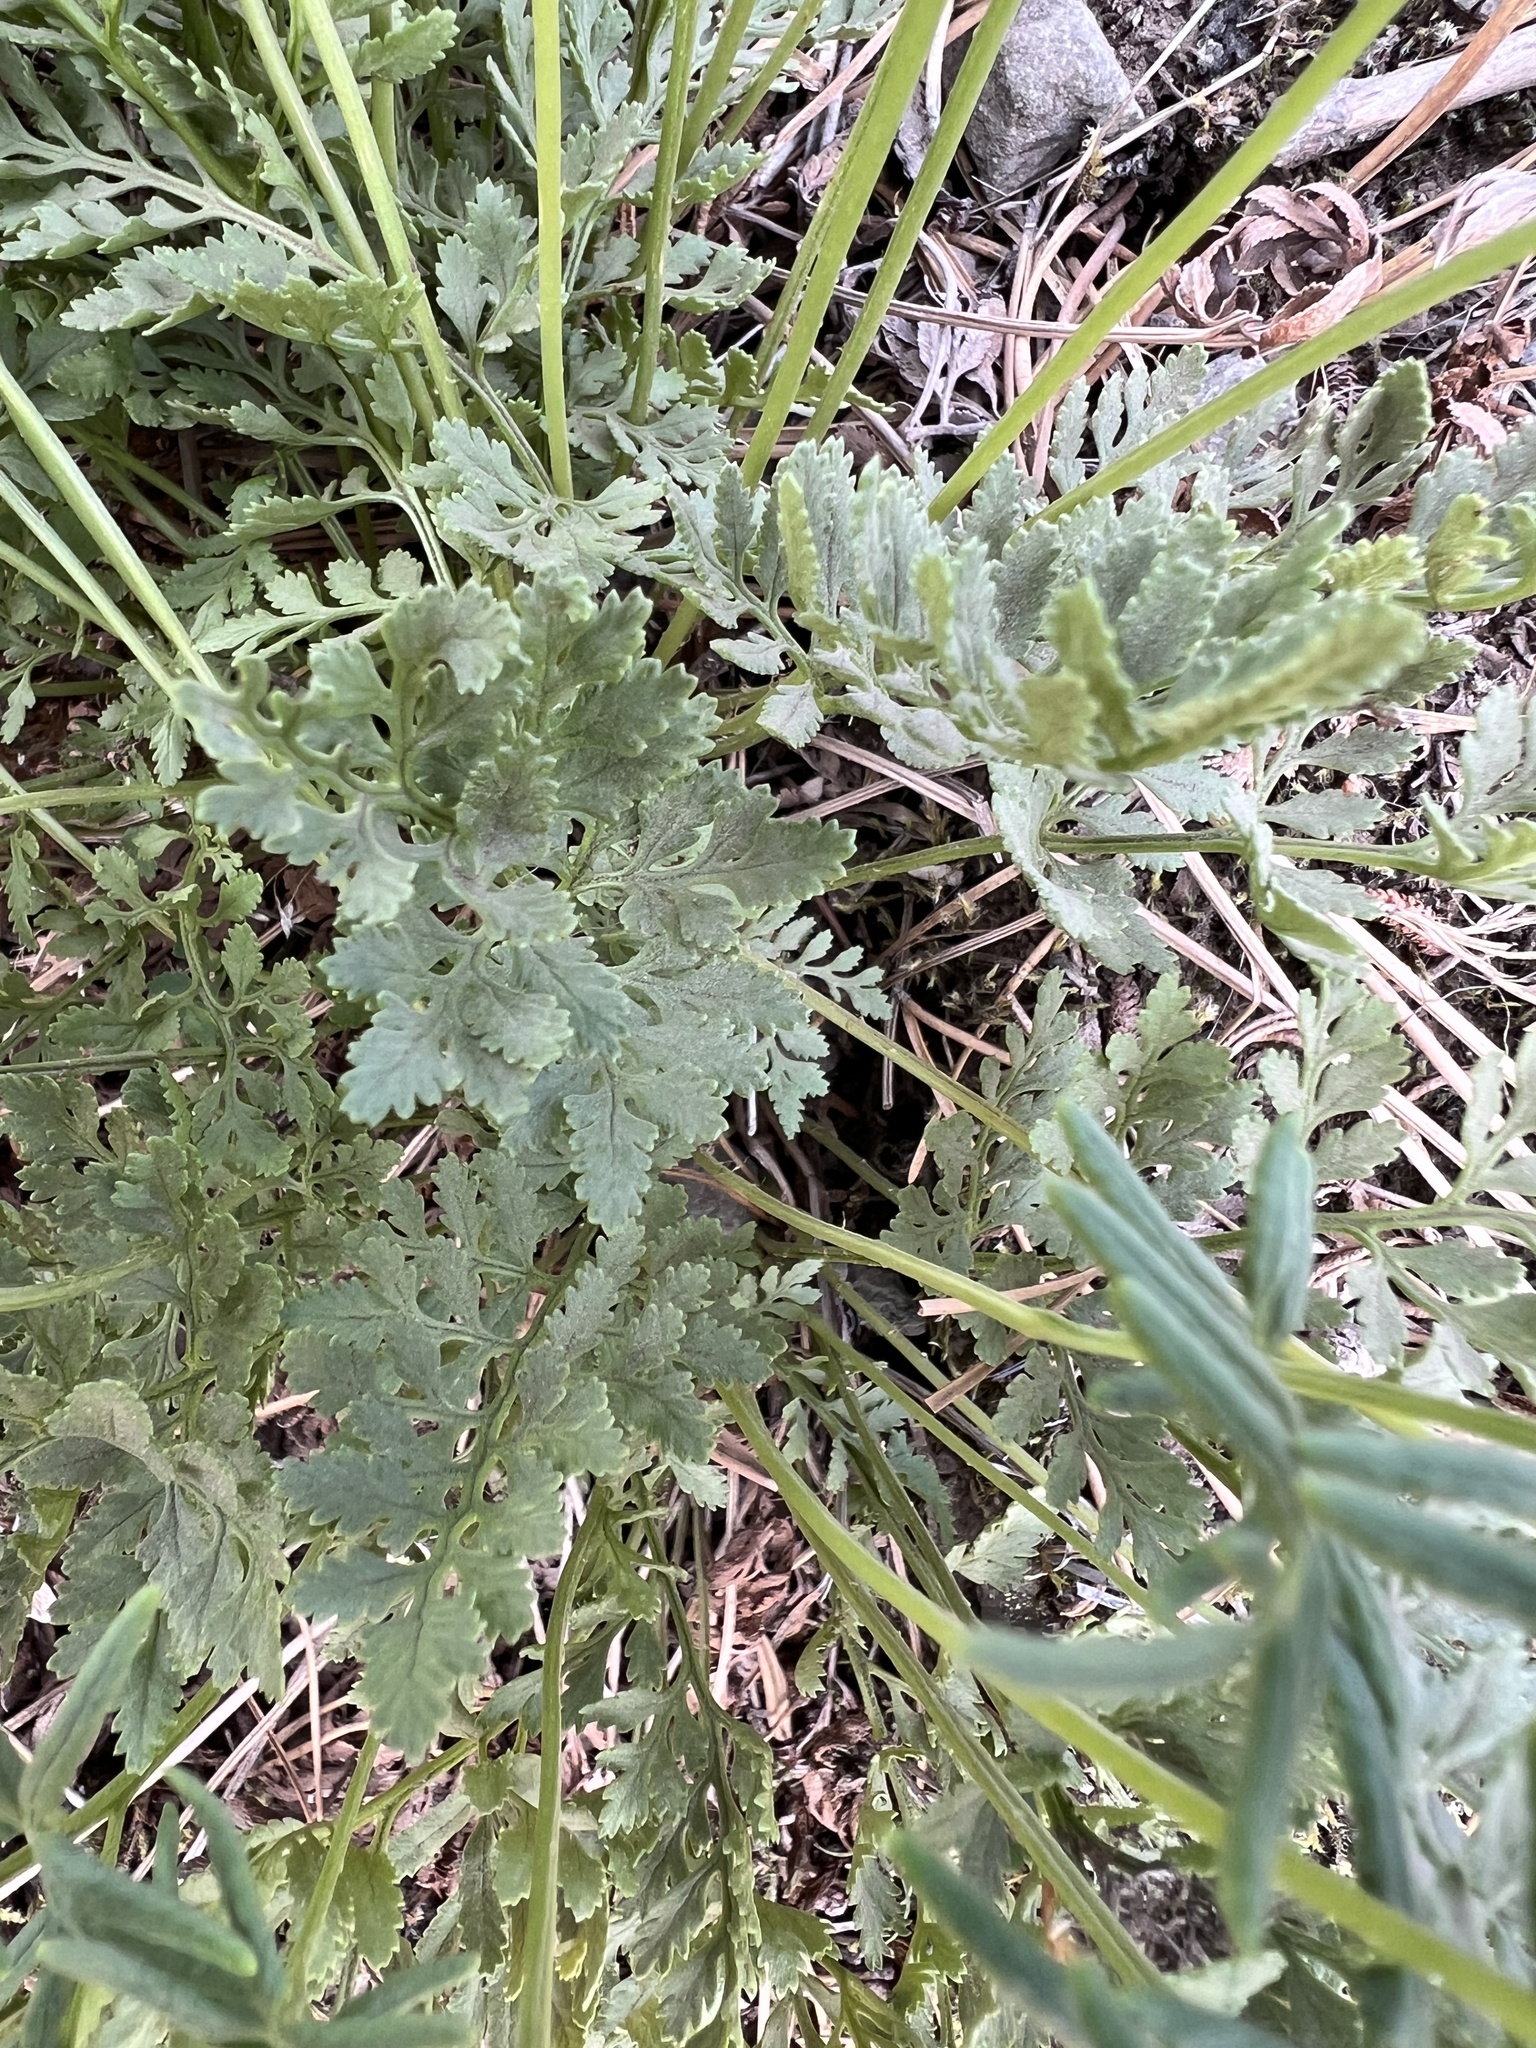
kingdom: Plantae
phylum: Tracheophyta
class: Polypodiopsida
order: Polypodiales
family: Pteridaceae
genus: Cryptogramma
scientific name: Cryptogramma acrostichoides
